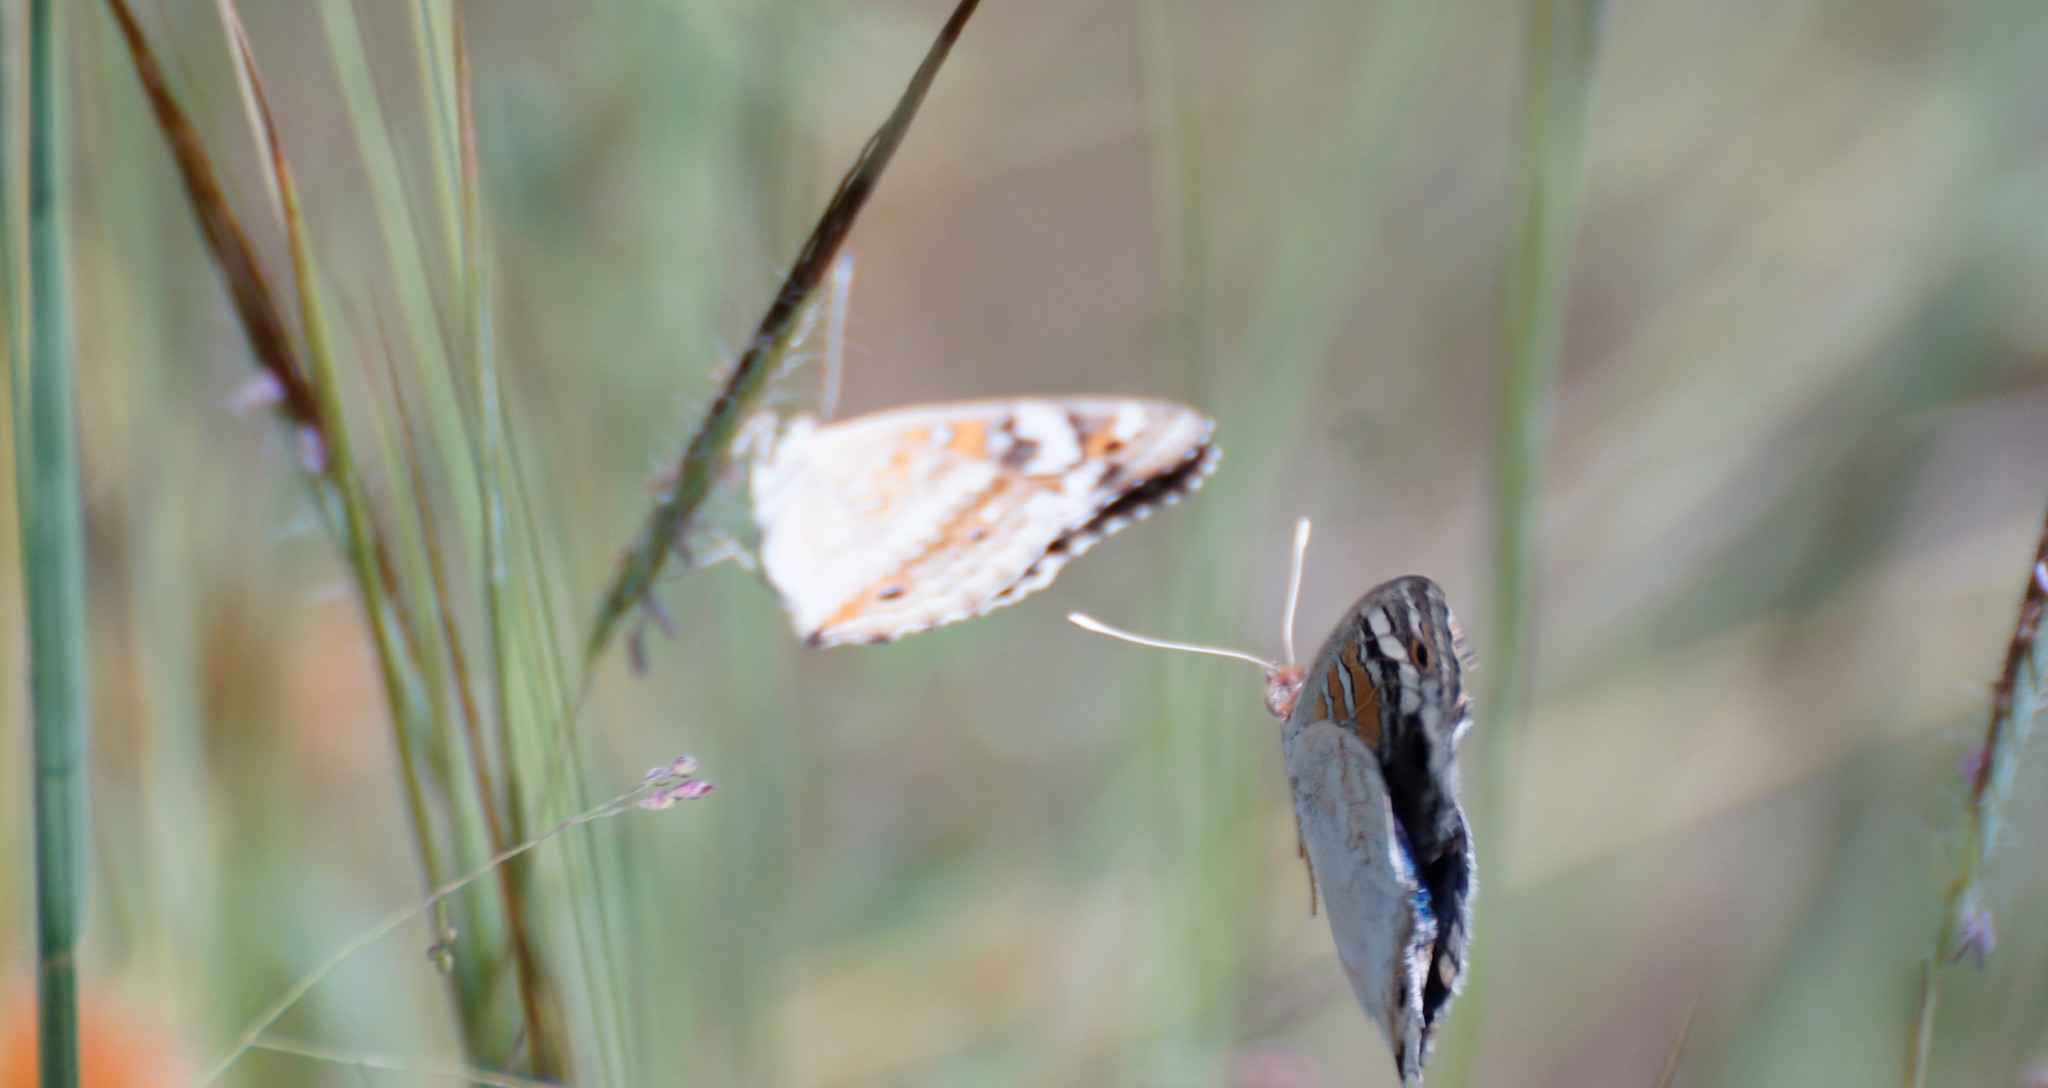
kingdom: Animalia
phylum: Arthropoda
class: Insecta
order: Lepidoptera
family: Nymphalidae
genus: Junonia
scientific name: Junonia orithya
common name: Blue pansy
